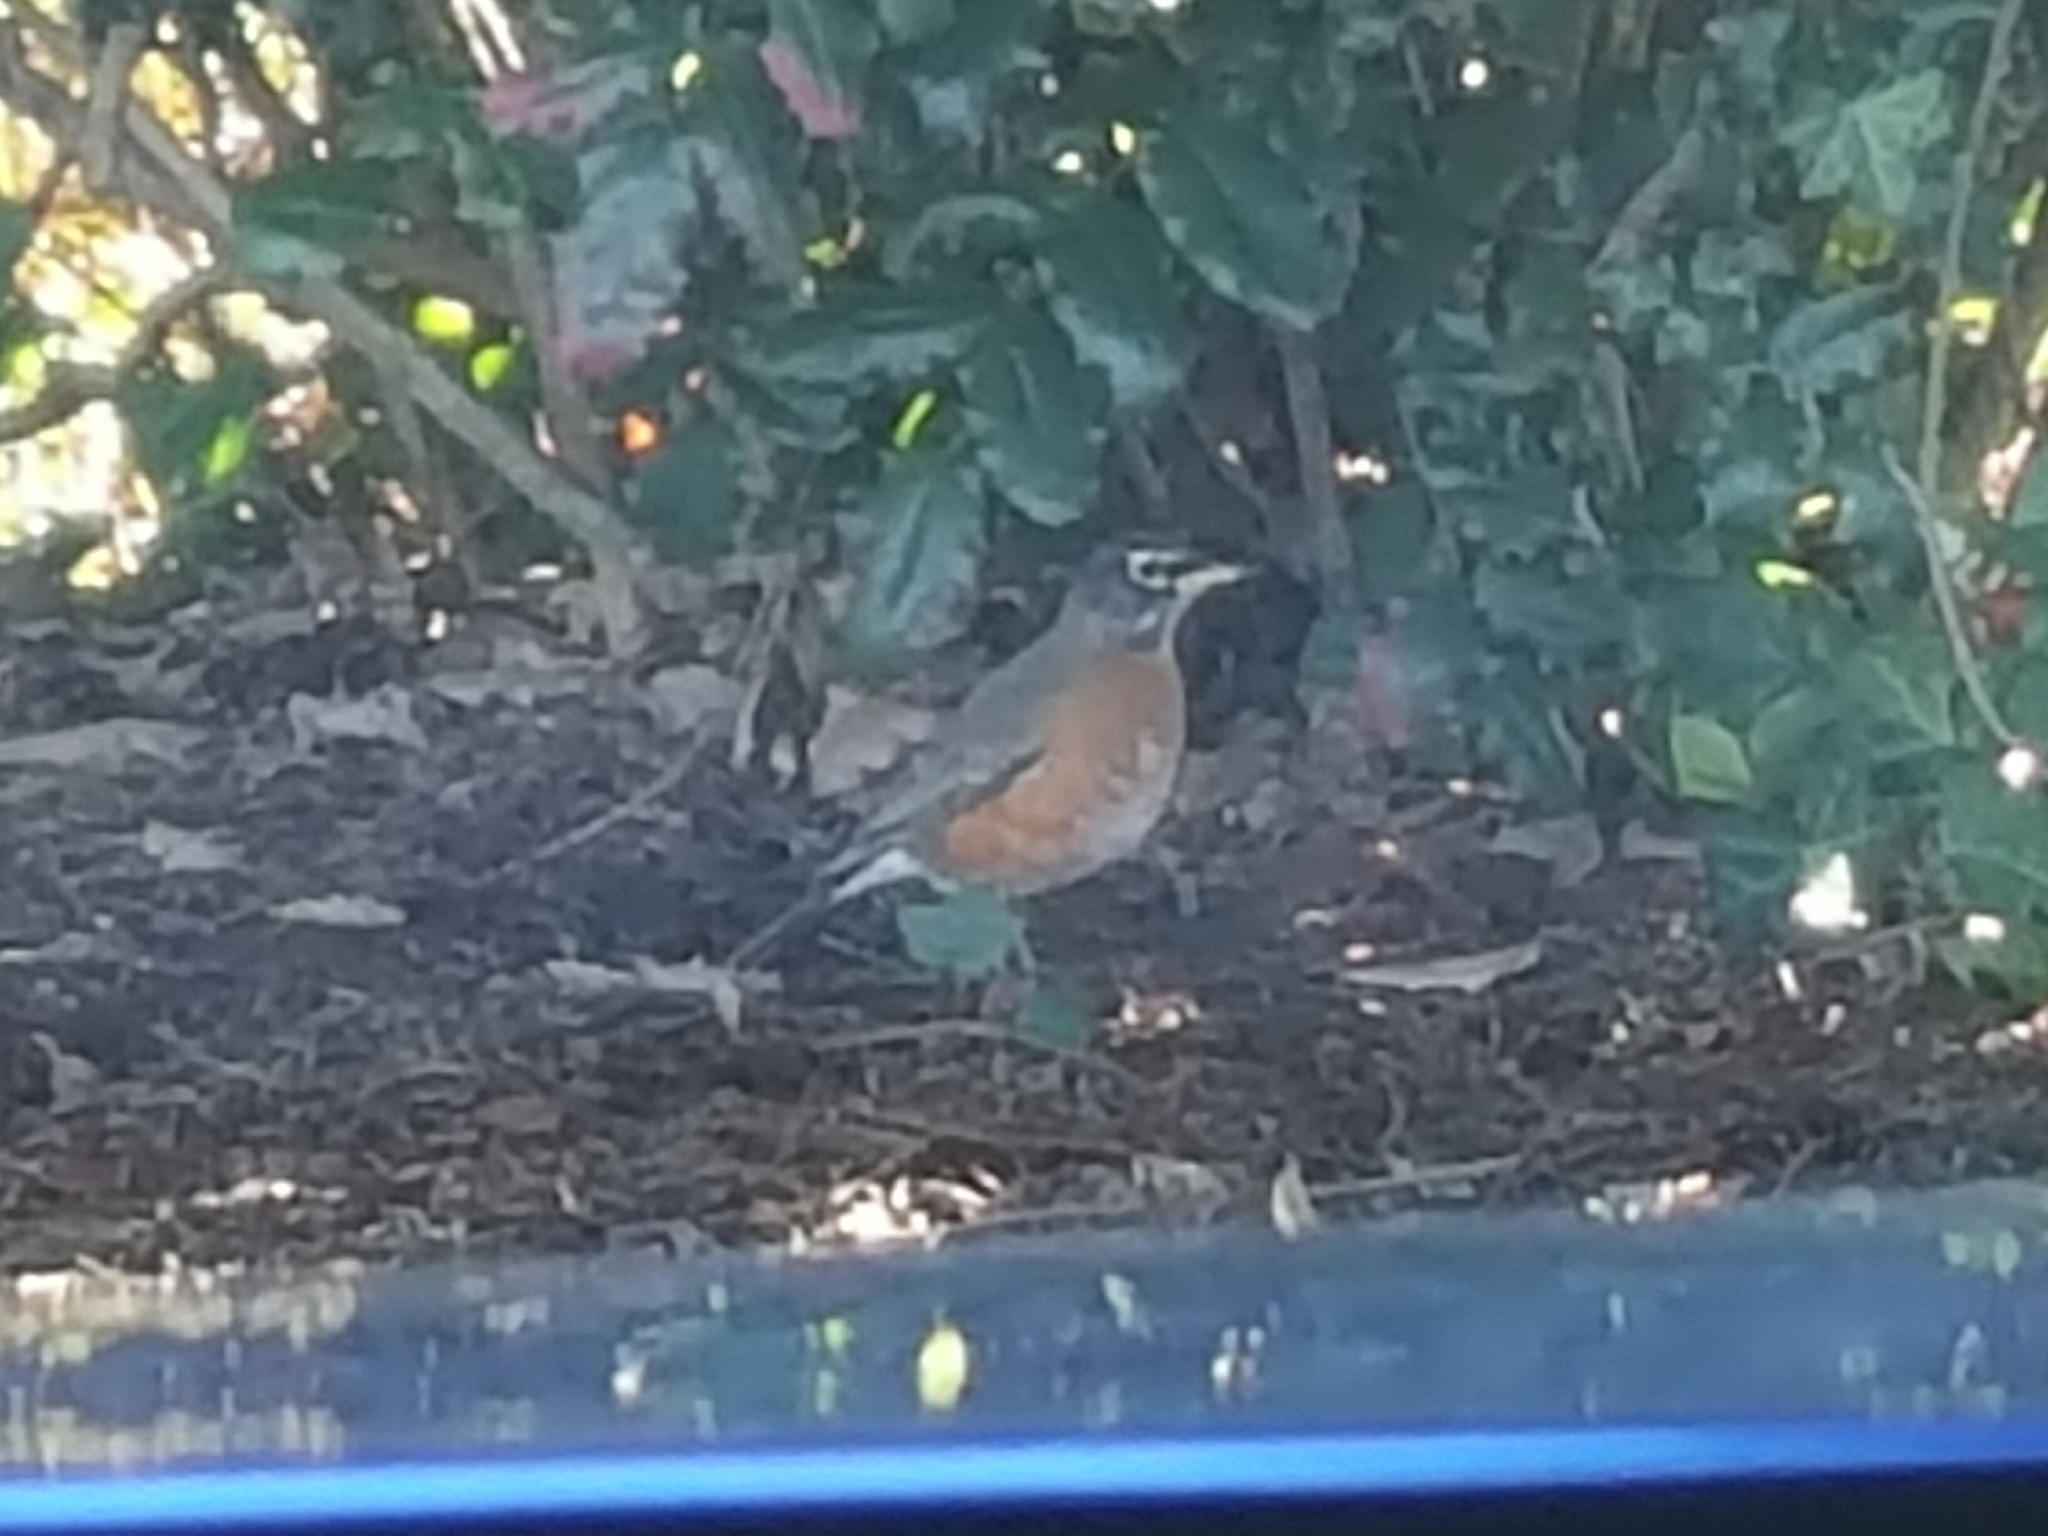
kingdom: Animalia
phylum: Chordata
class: Aves
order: Passeriformes
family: Turdidae
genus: Turdus
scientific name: Turdus migratorius
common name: American robin
